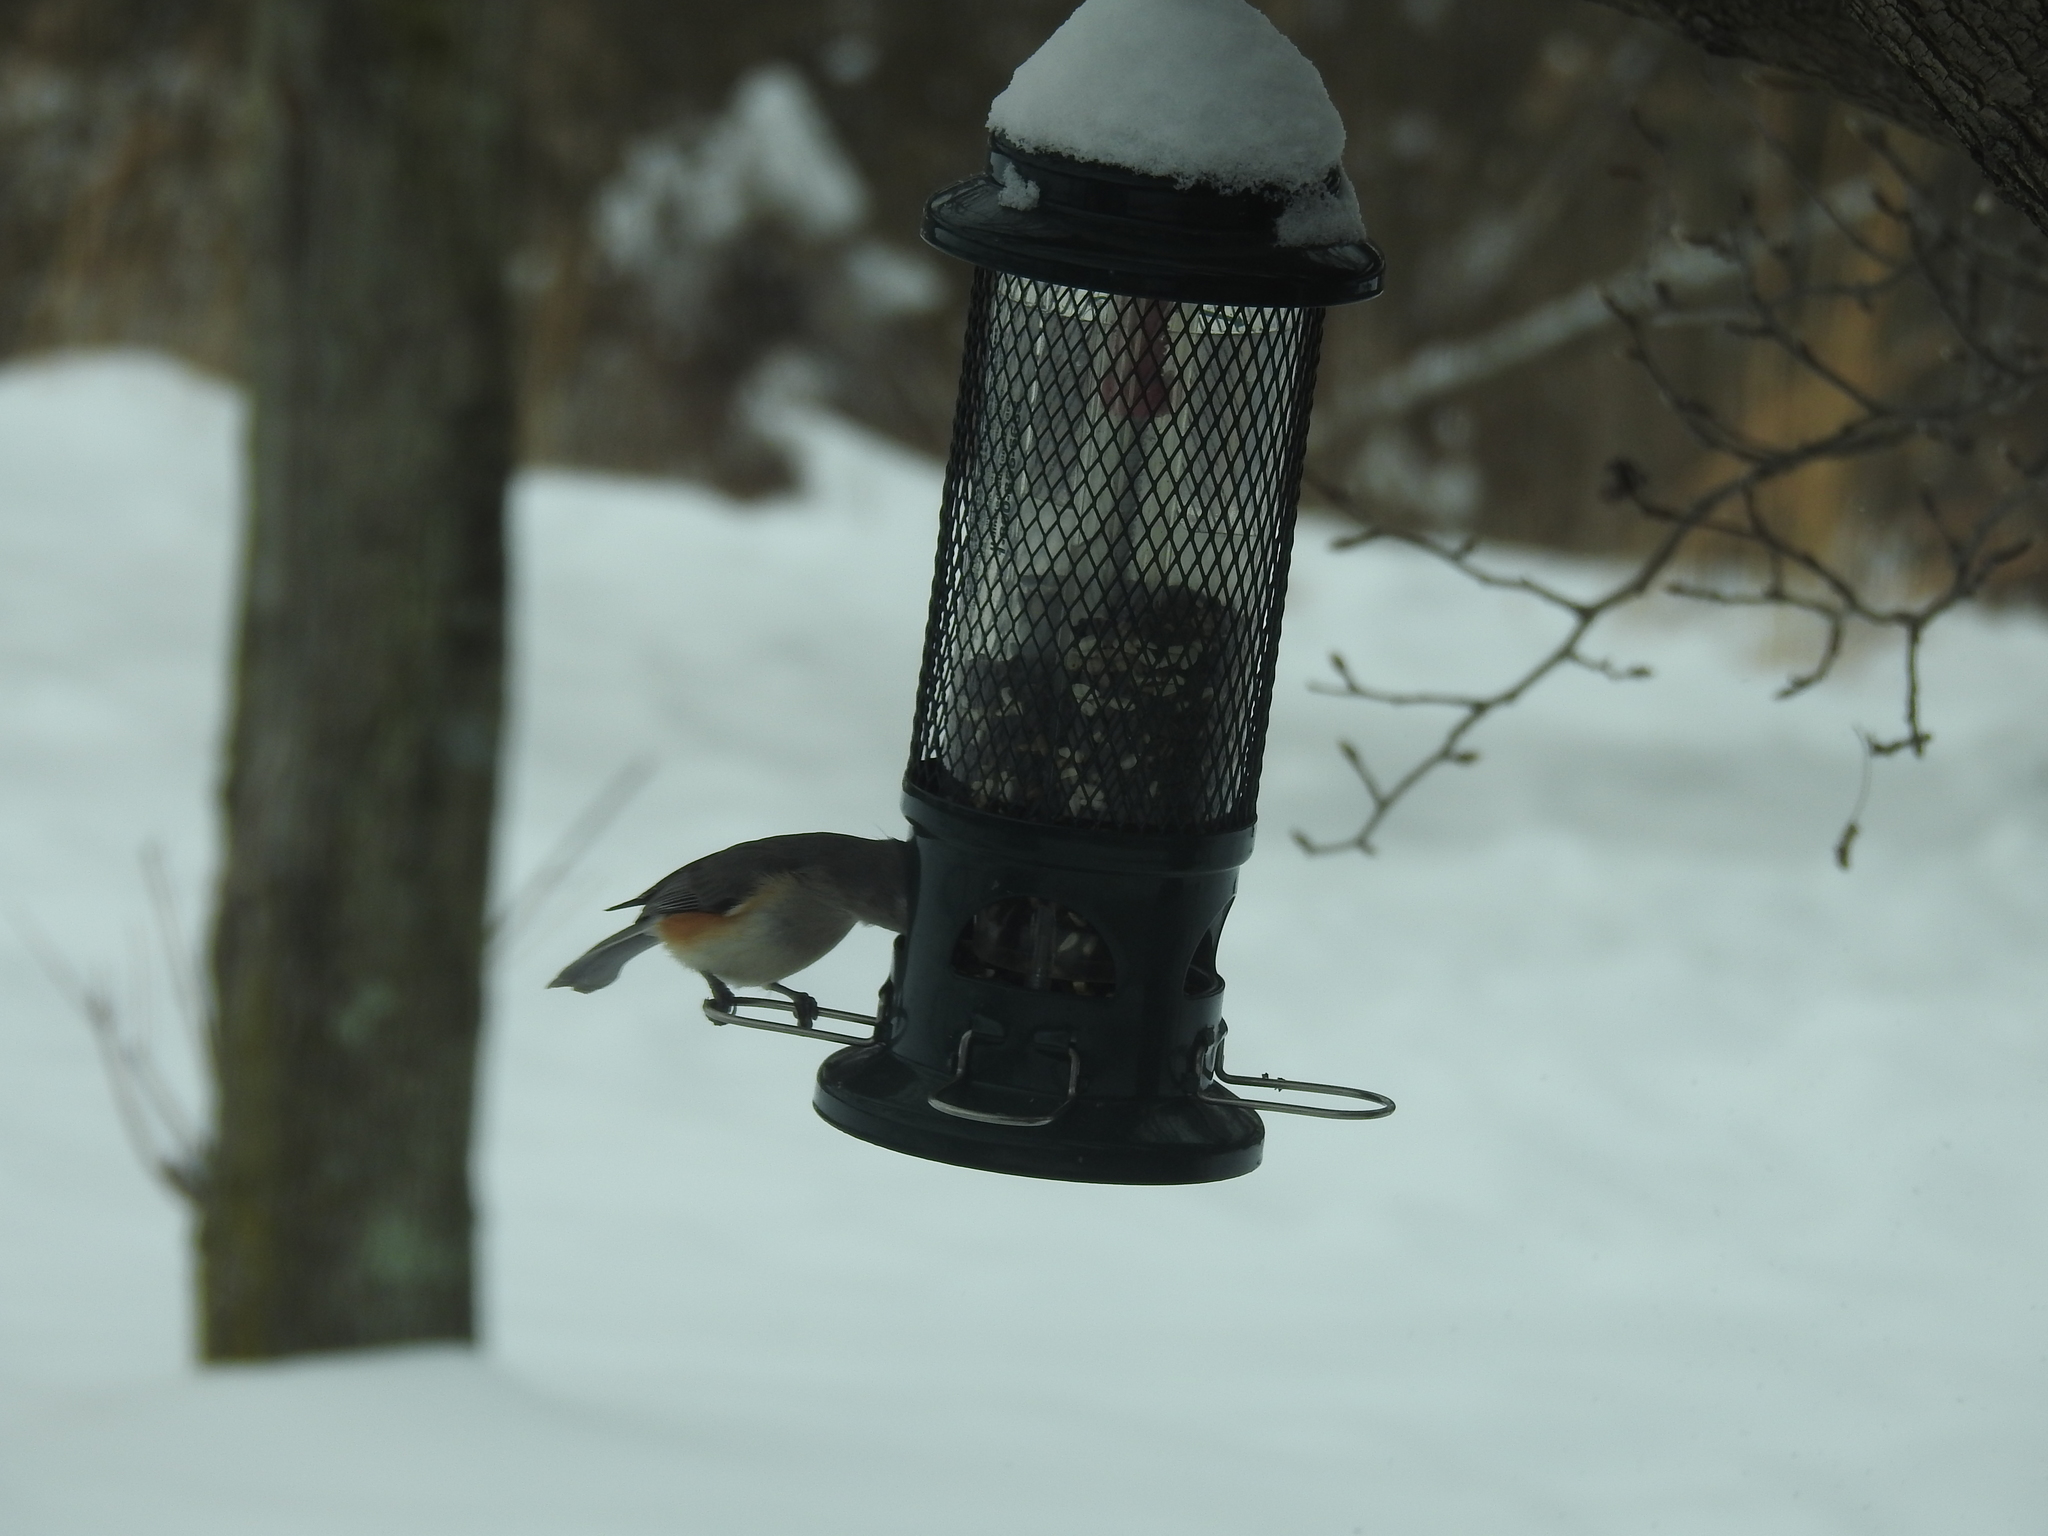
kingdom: Animalia
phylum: Chordata
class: Aves
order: Passeriformes
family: Paridae
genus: Baeolophus
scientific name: Baeolophus bicolor
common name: Tufted titmouse
